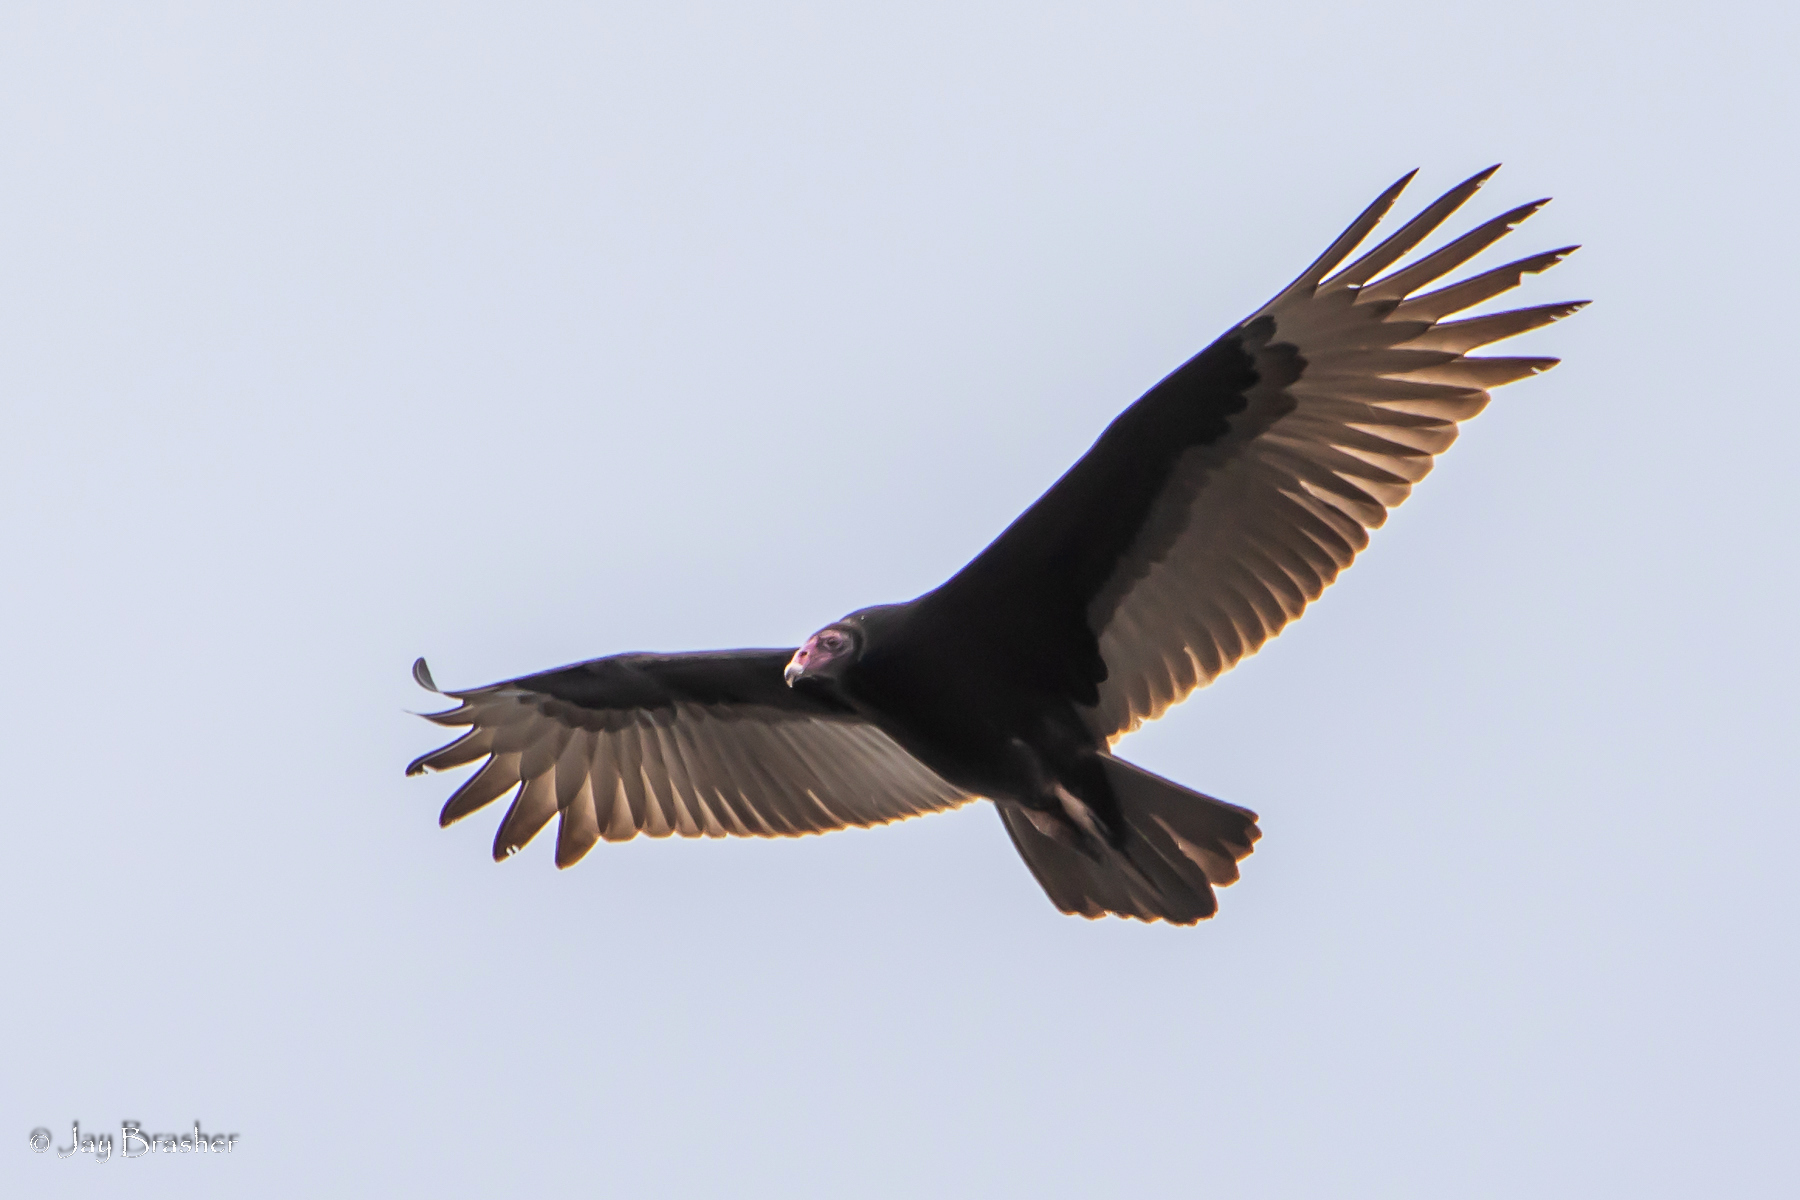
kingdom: Animalia
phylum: Chordata
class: Aves
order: Accipitriformes
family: Cathartidae
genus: Cathartes
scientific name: Cathartes aura
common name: Turkey vulture
